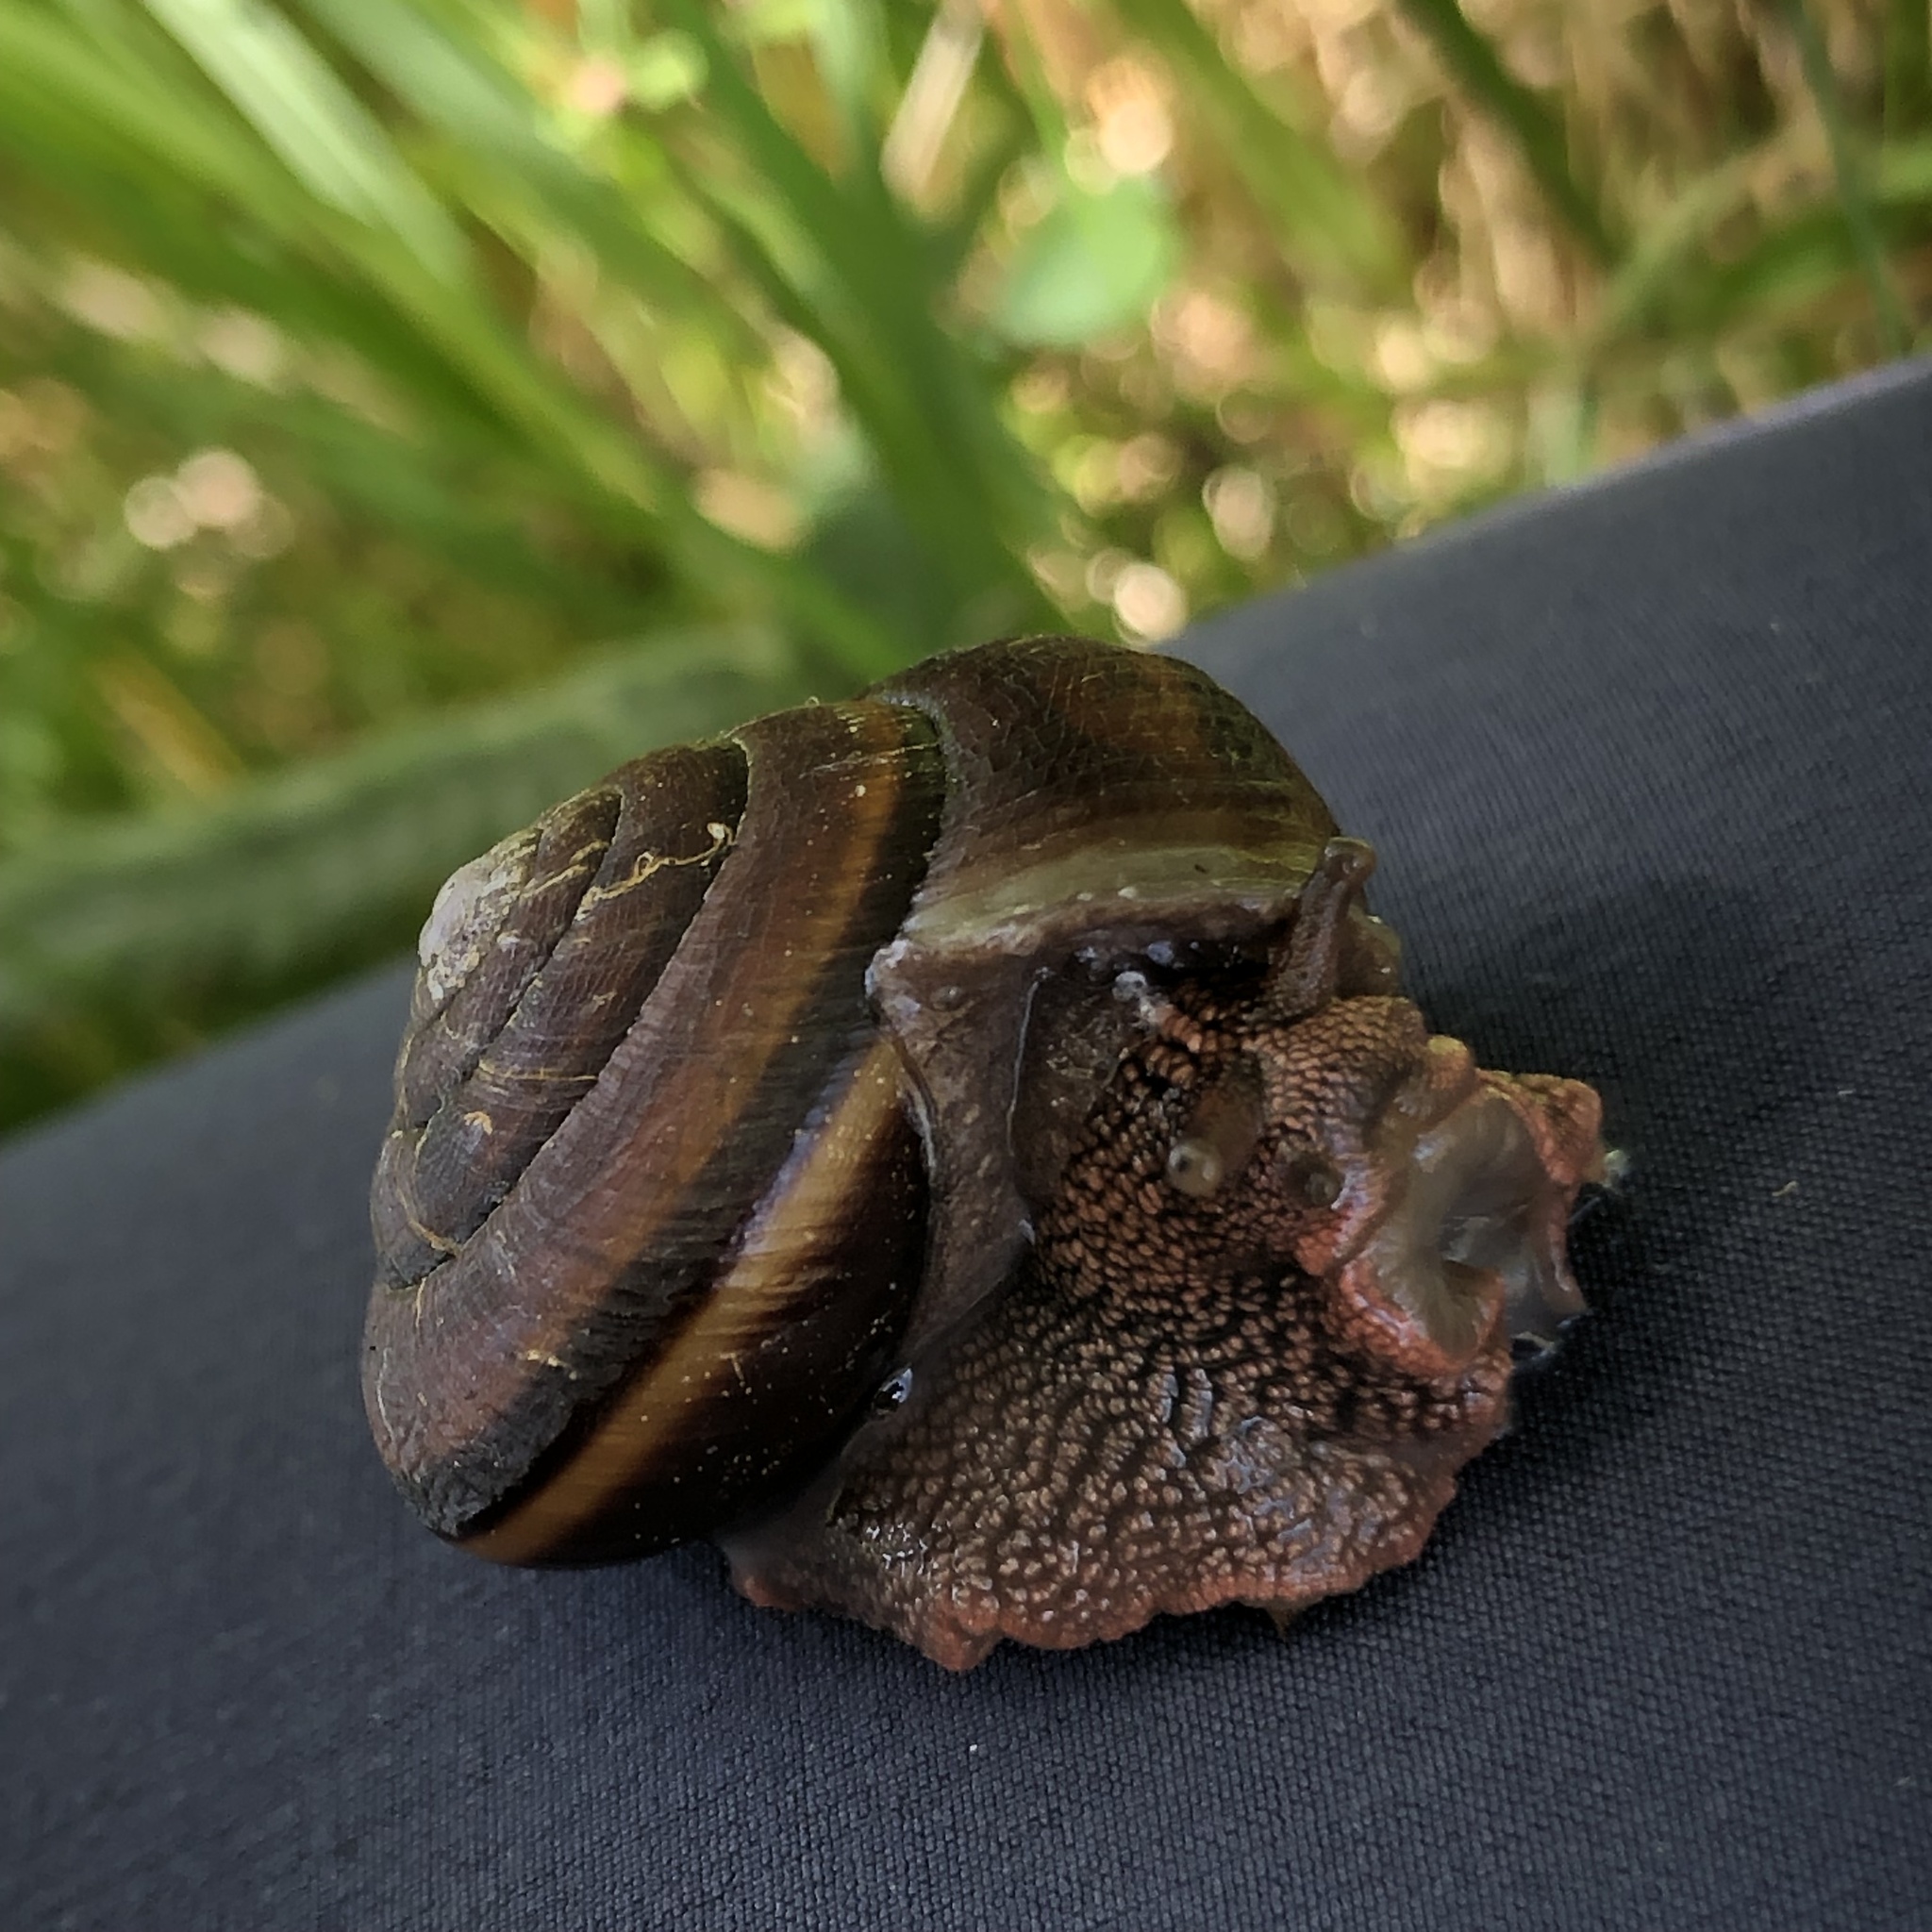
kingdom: Animalia
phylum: Mollusca
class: Gastropoda
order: Stylommatophora
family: Xanthonychidae
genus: Monadenia
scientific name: Monadenia fidelis
